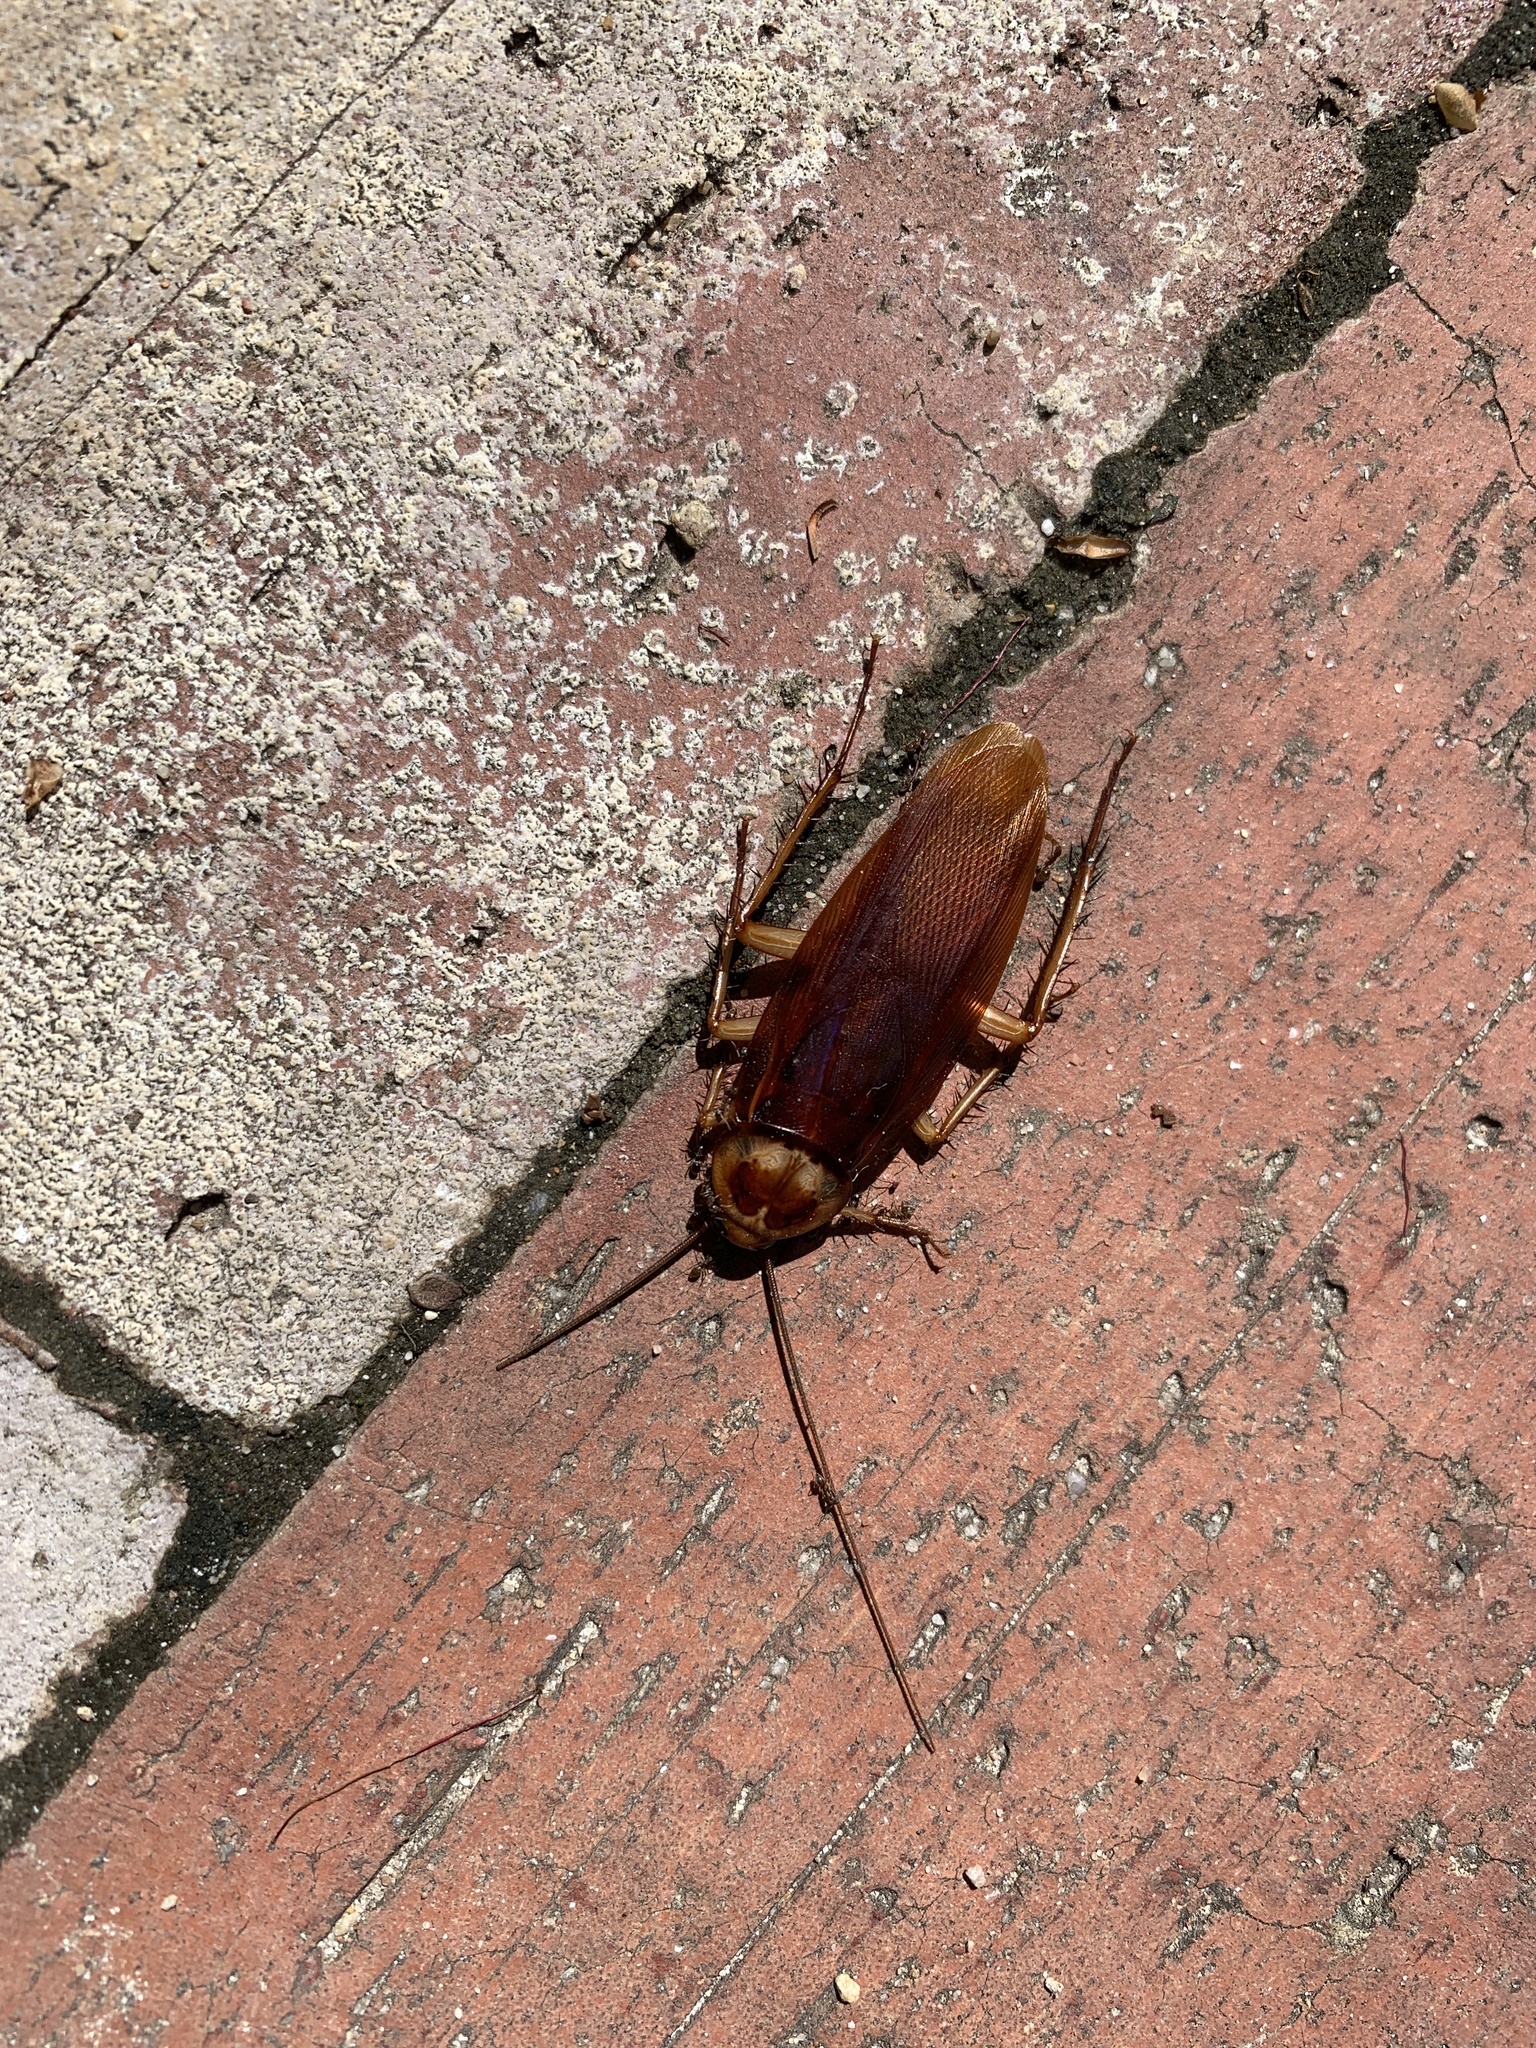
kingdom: Animalia
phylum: Arthropoda
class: Insecta
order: Blattodea
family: Blattidae
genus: Periplaneta
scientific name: Periplaneta americana
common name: American cockroach
